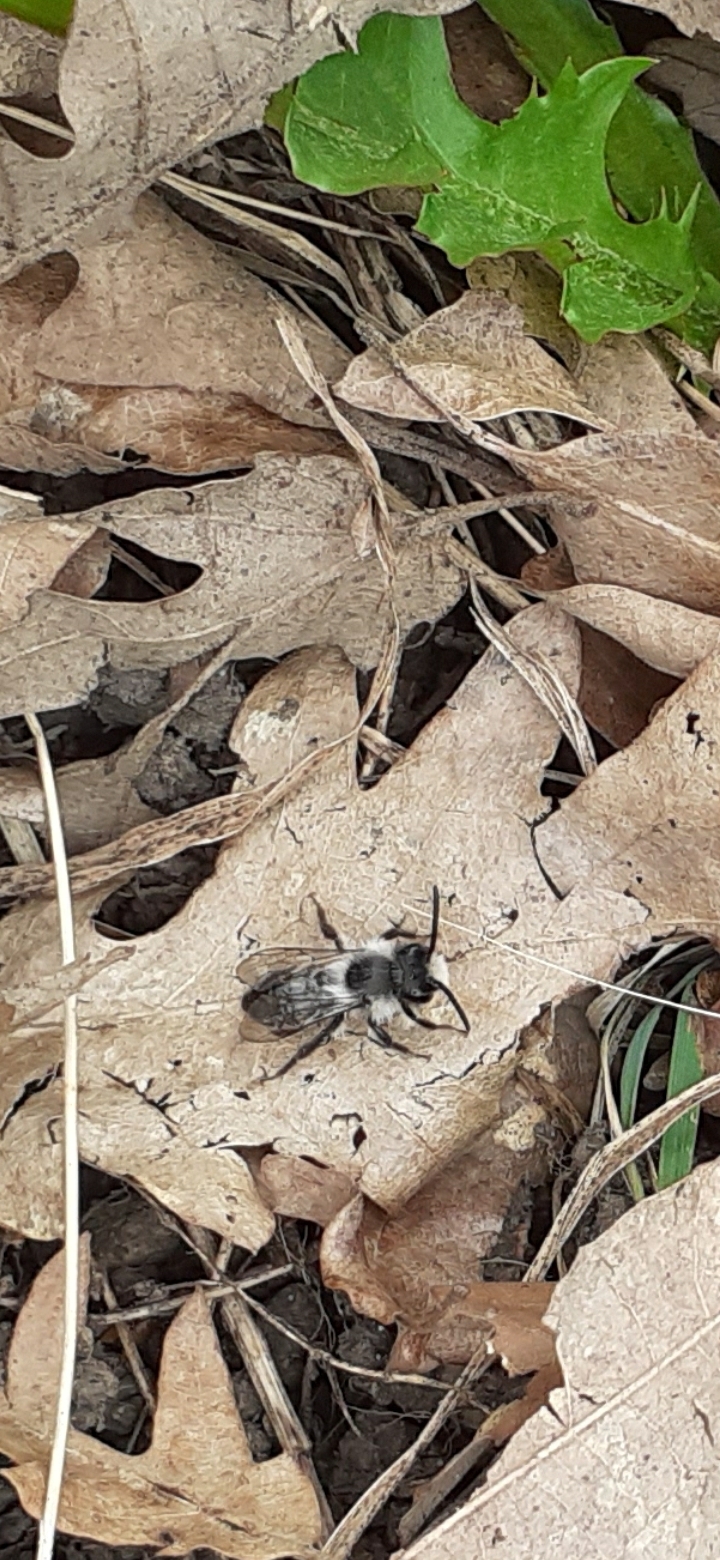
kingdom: Animalia
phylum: Arthropoda
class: Insecta
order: Hymenoptera
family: Andrenidae
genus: Andrena
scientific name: Andrena cineraria
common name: Ashy mining bee
